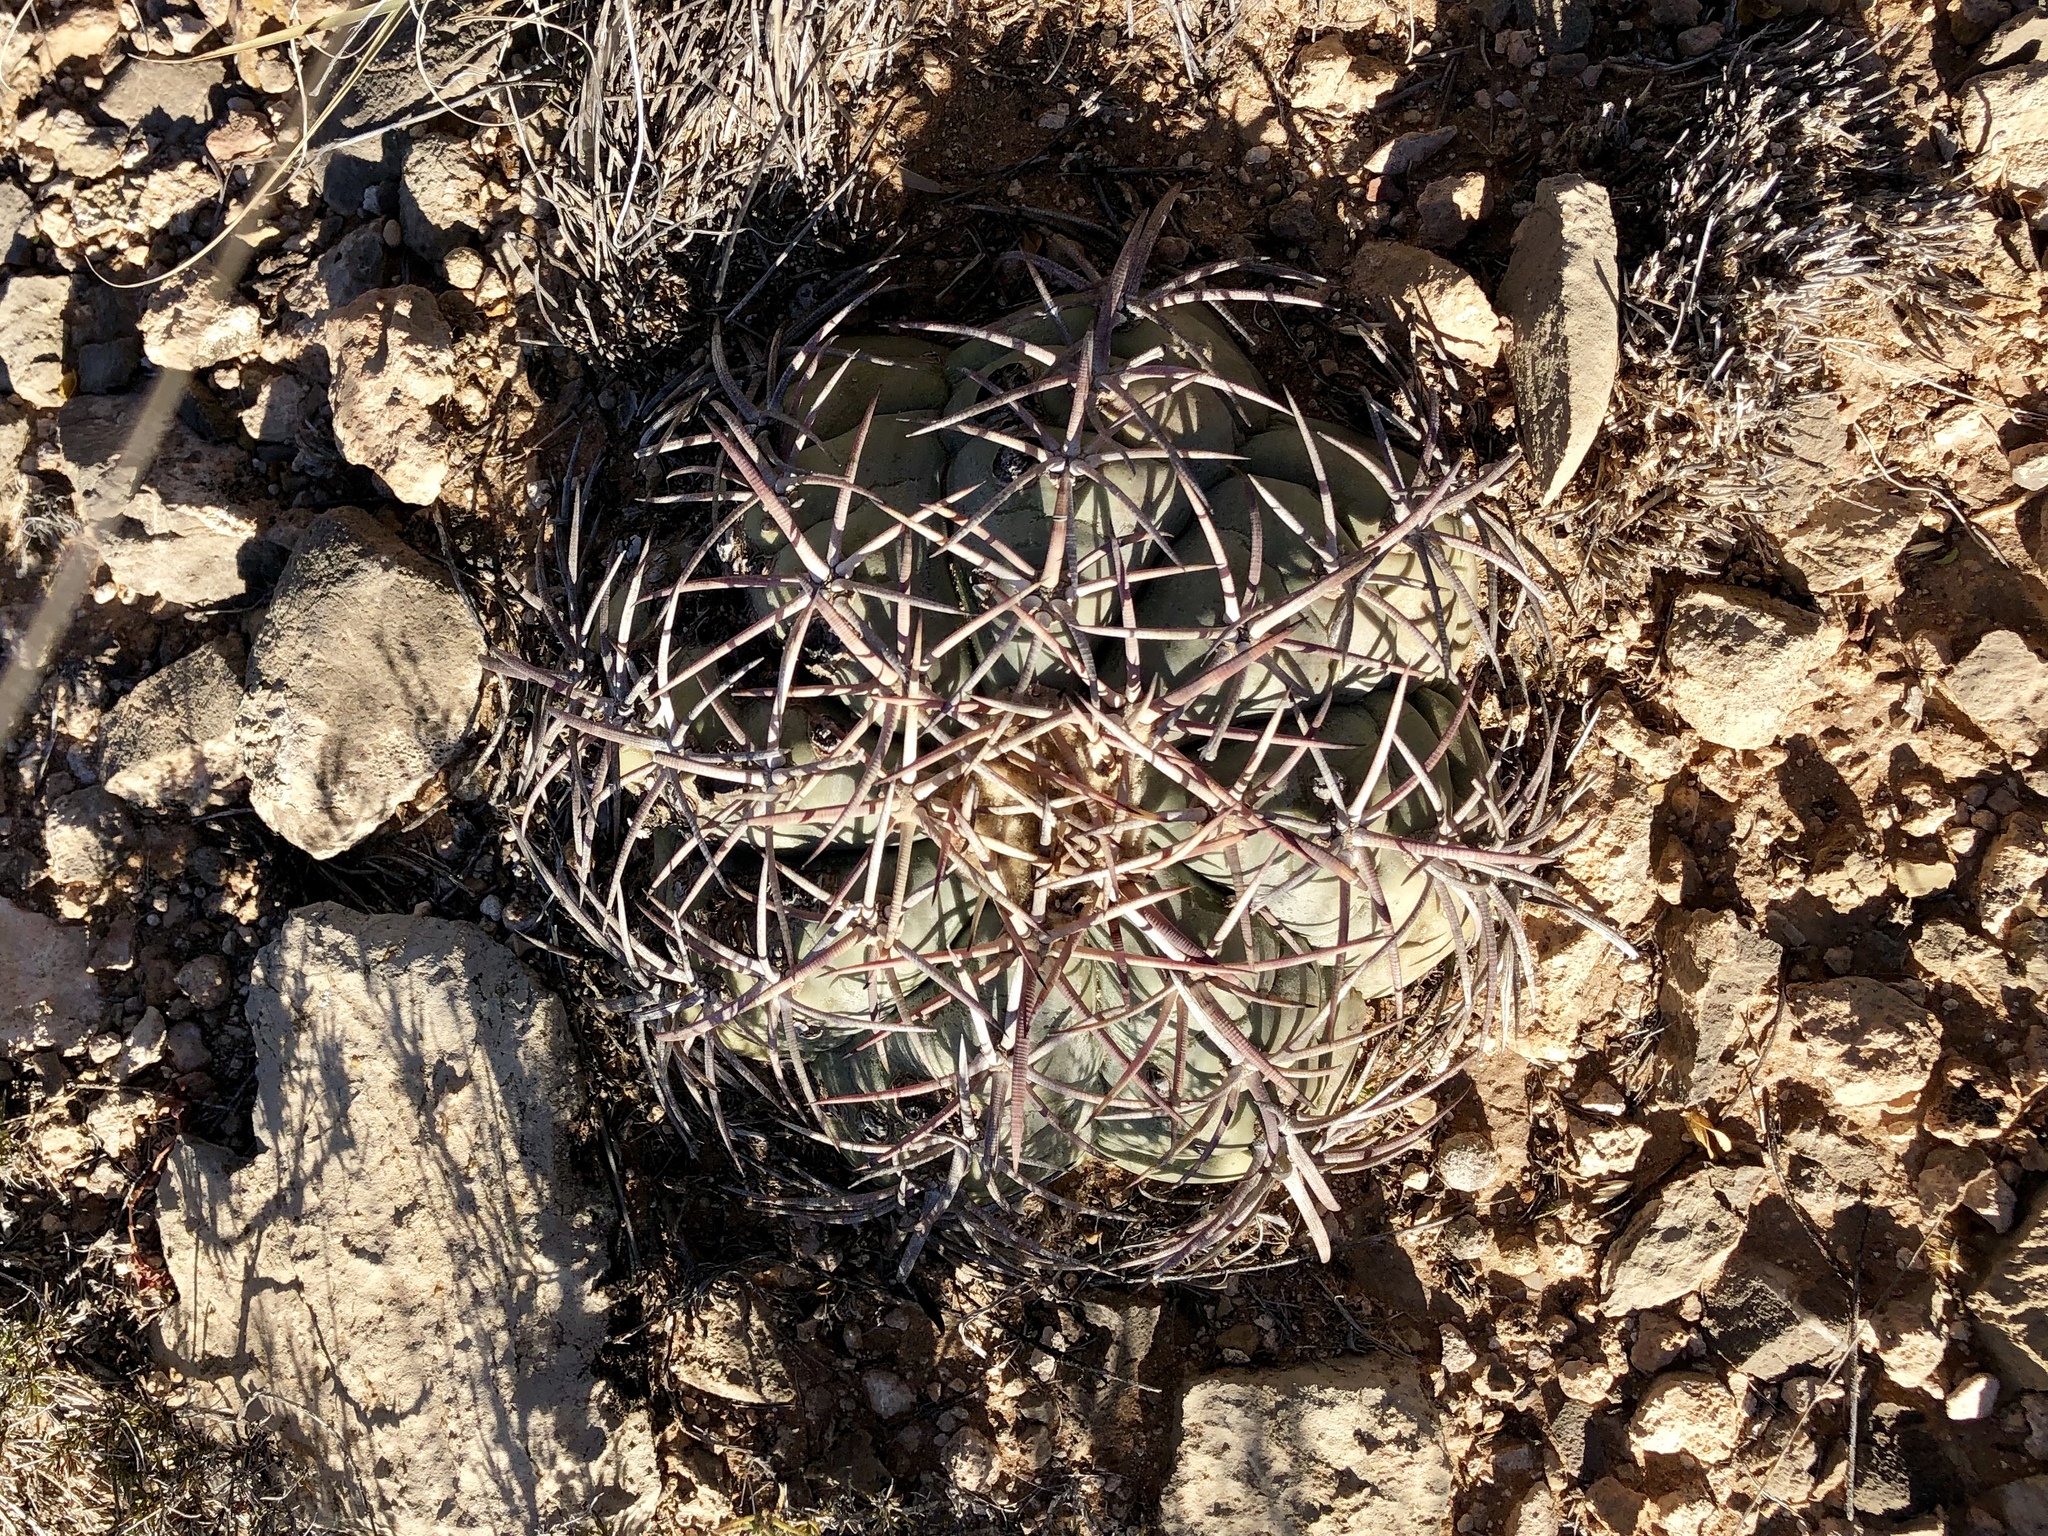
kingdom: Plantae
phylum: Tracheophyta
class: Magnoliopsida
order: Caryophyllales
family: Cactaceae
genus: Echinocactus
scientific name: Echinocactus horizonthalonius
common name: Devilshead
